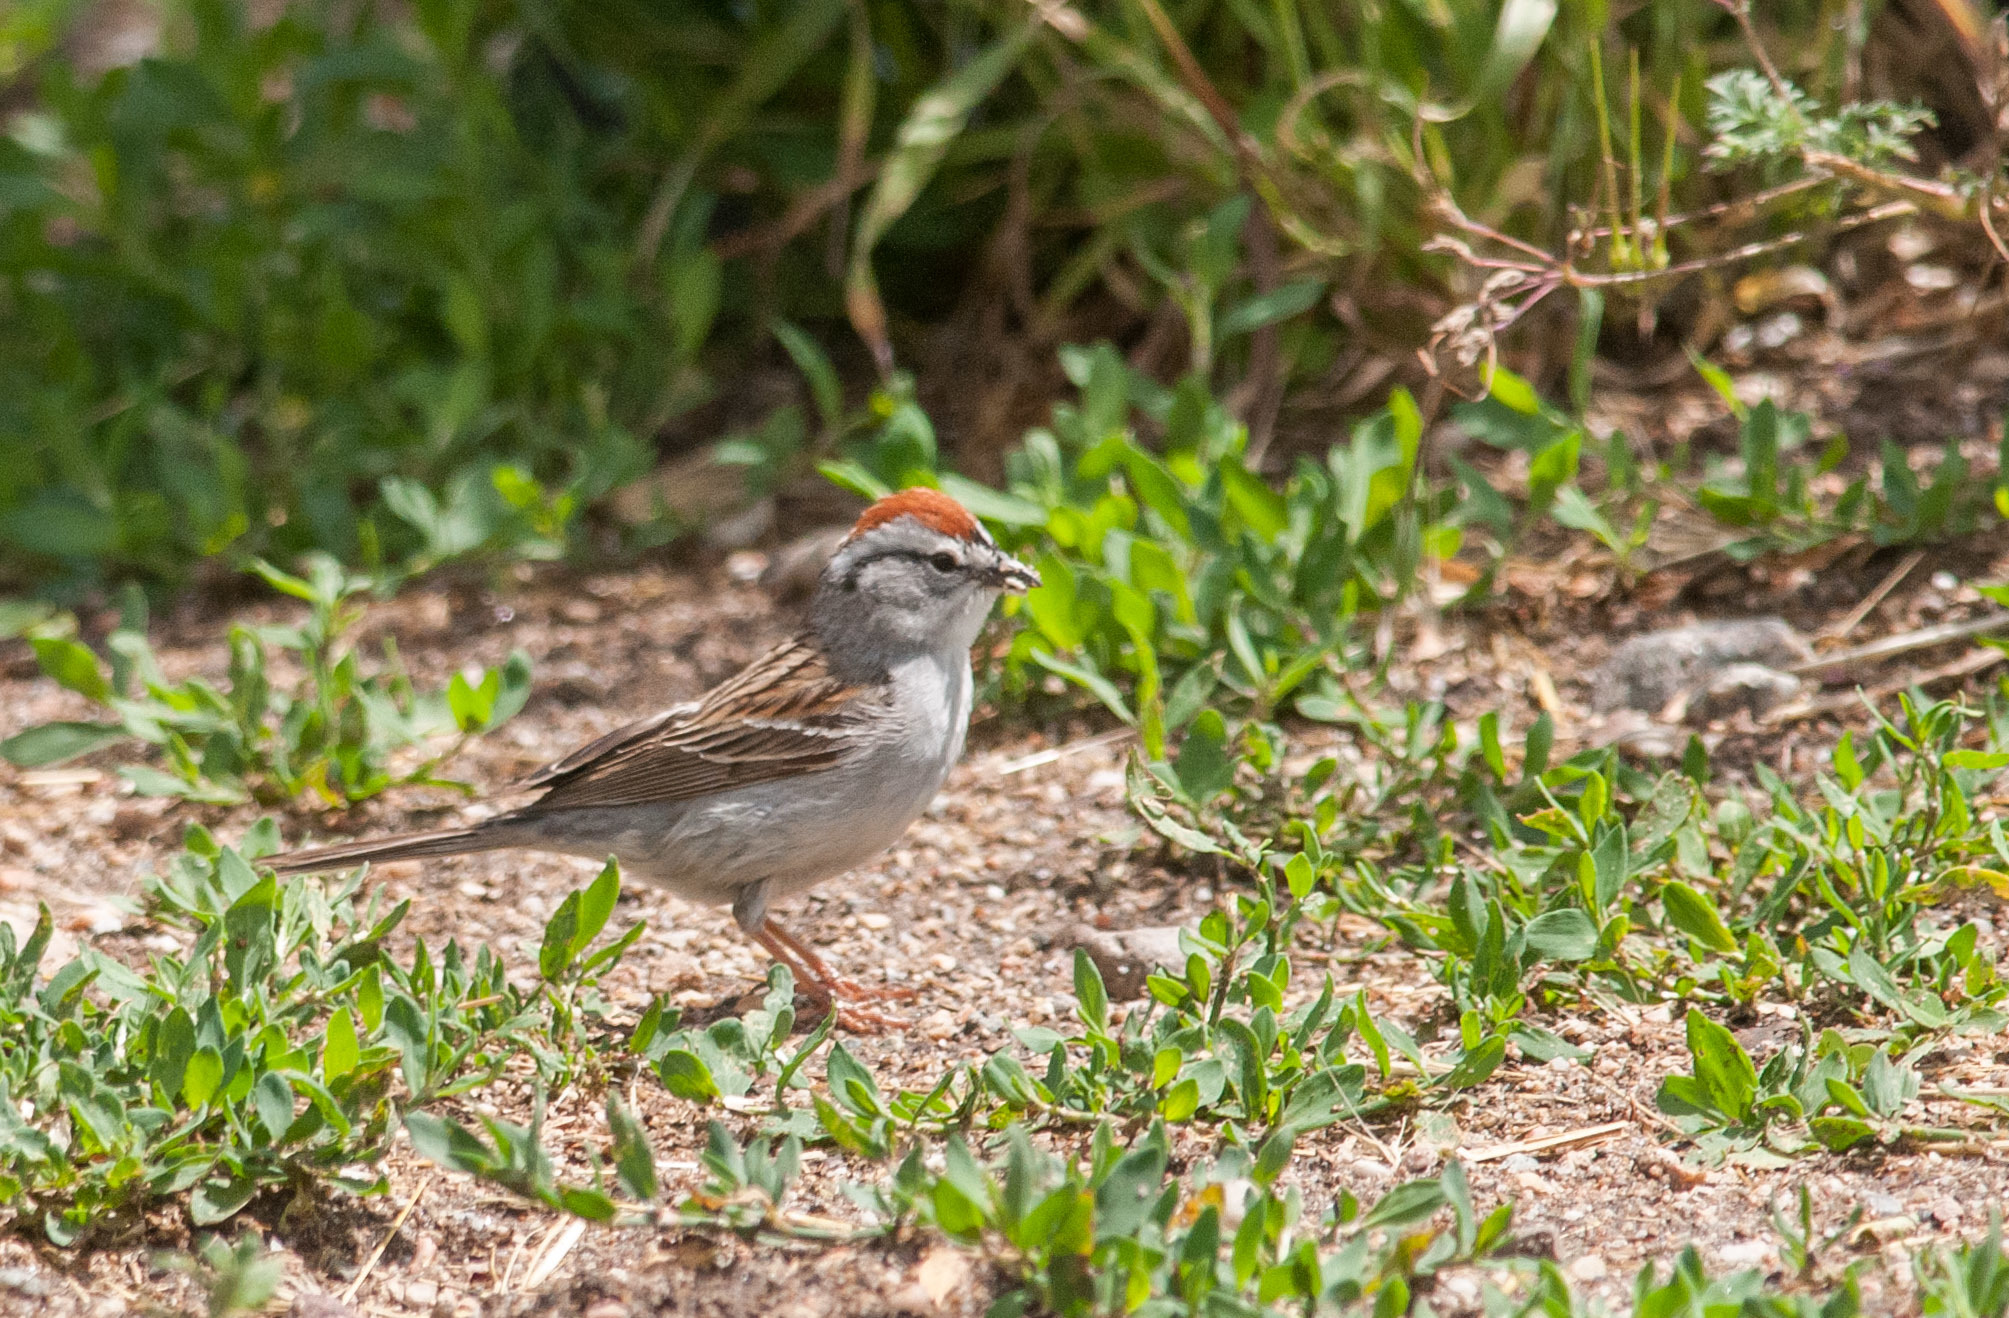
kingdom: Animalia
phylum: Chordata
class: Aves
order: Passeriformes
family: Passerellidae
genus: Spizella
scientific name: Spizella passerina
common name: Chipping sparrow
